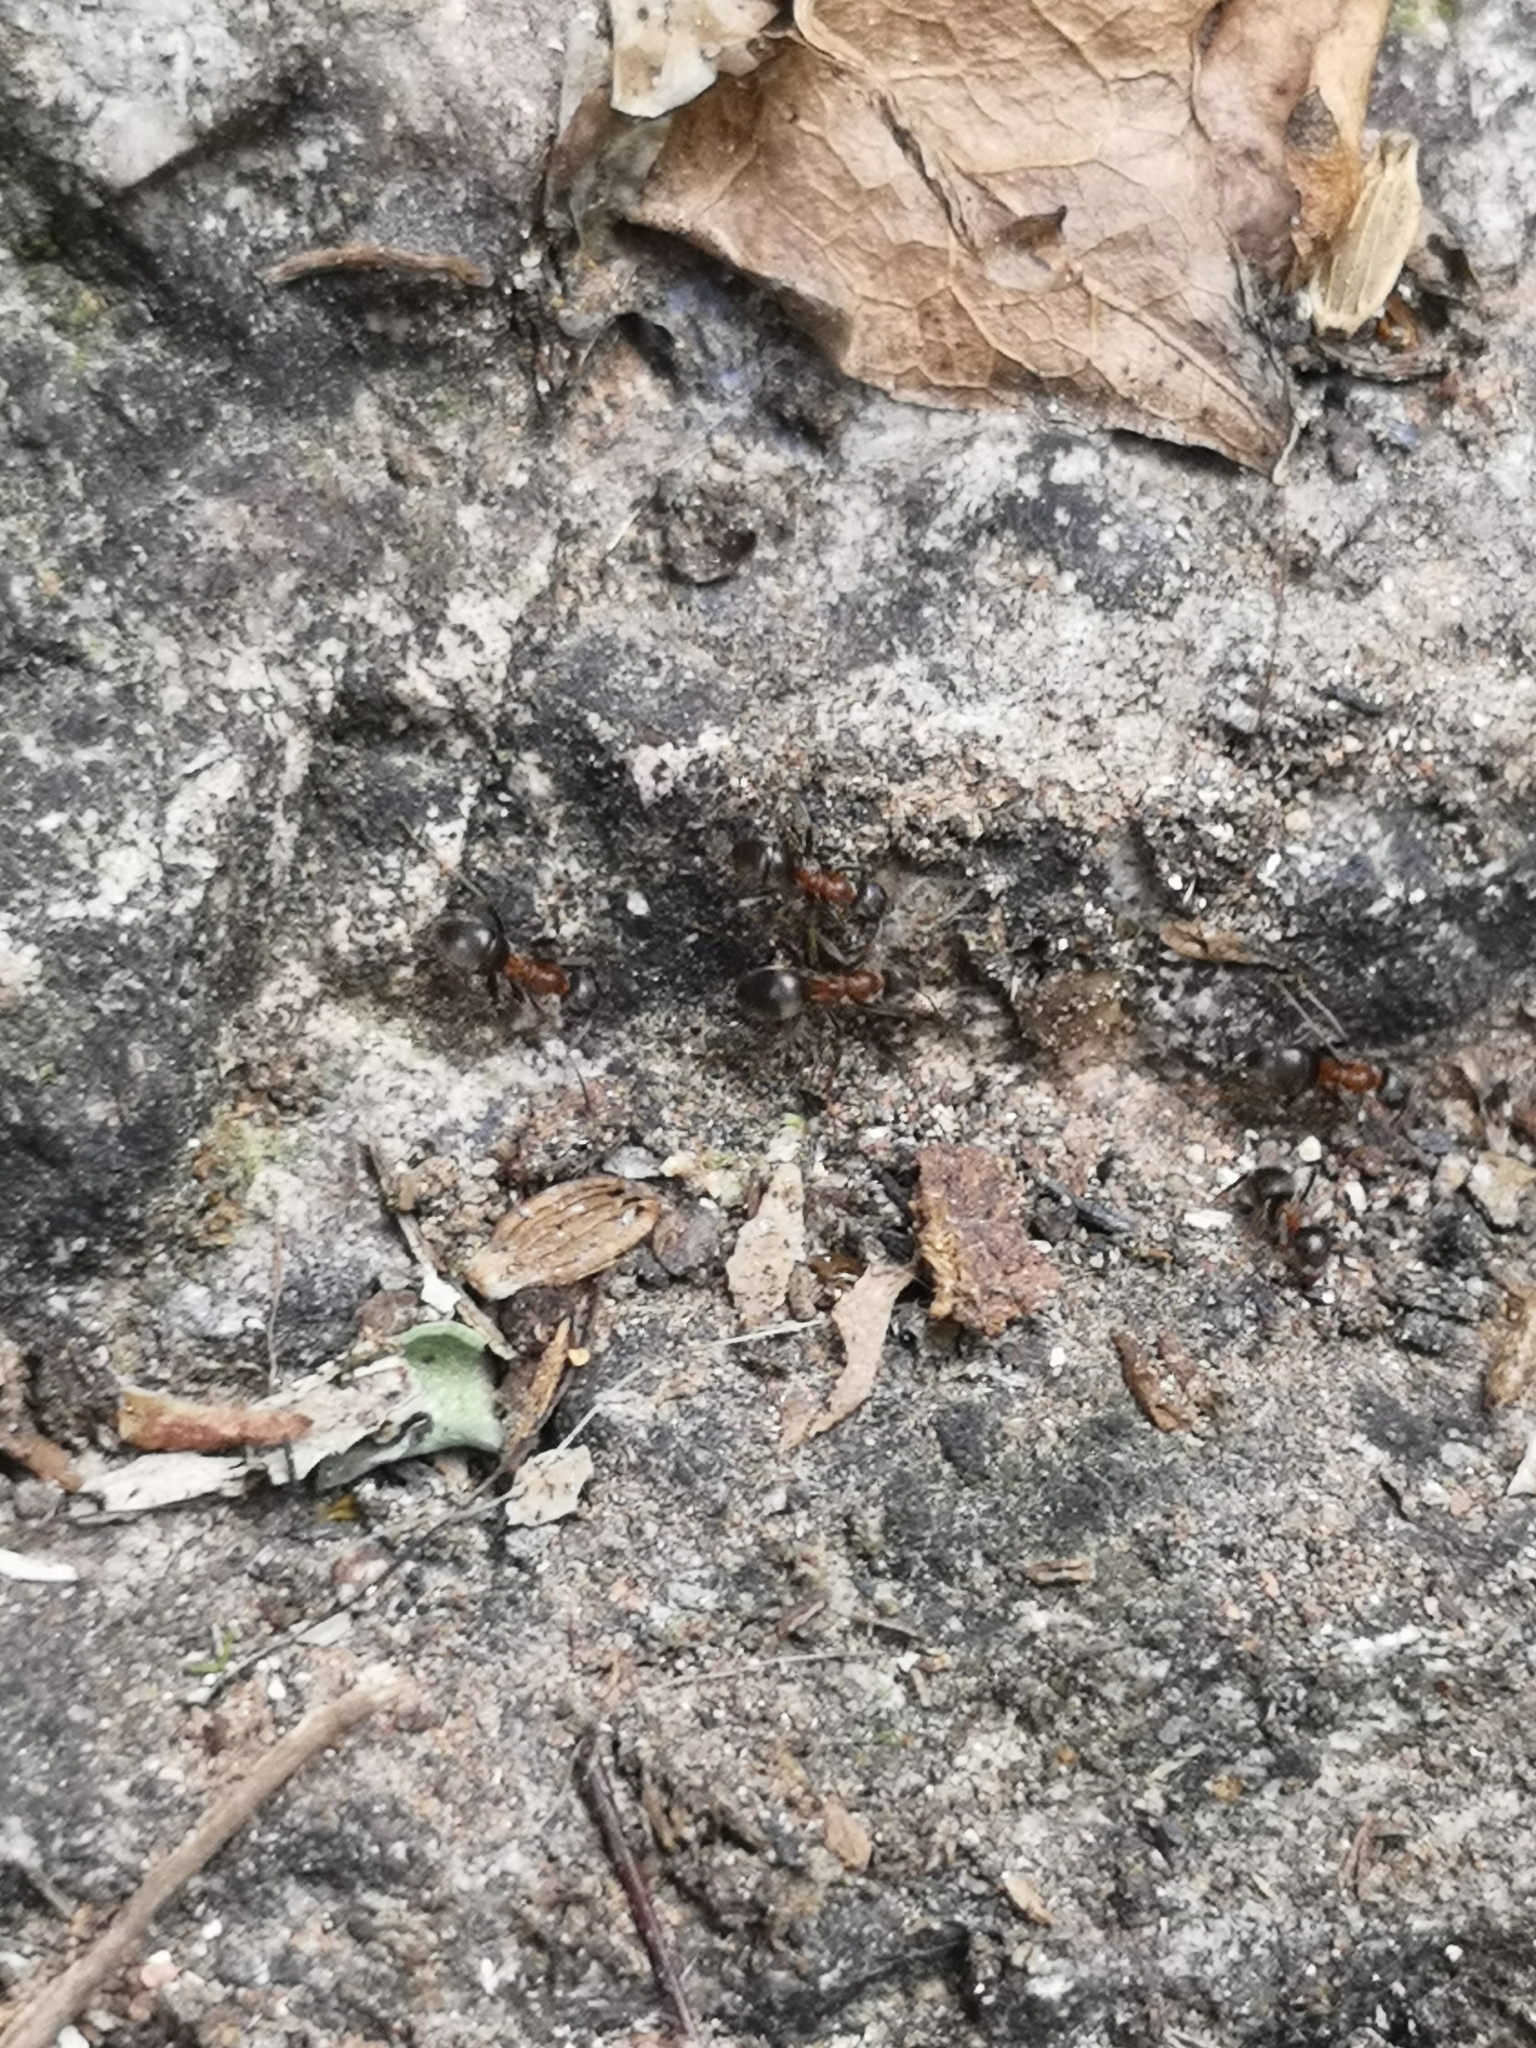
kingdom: Animalia
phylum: Arthropoda
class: Insecta
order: Hymenoptera
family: Formicidae
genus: Lasius
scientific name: Lasius emarginatus
